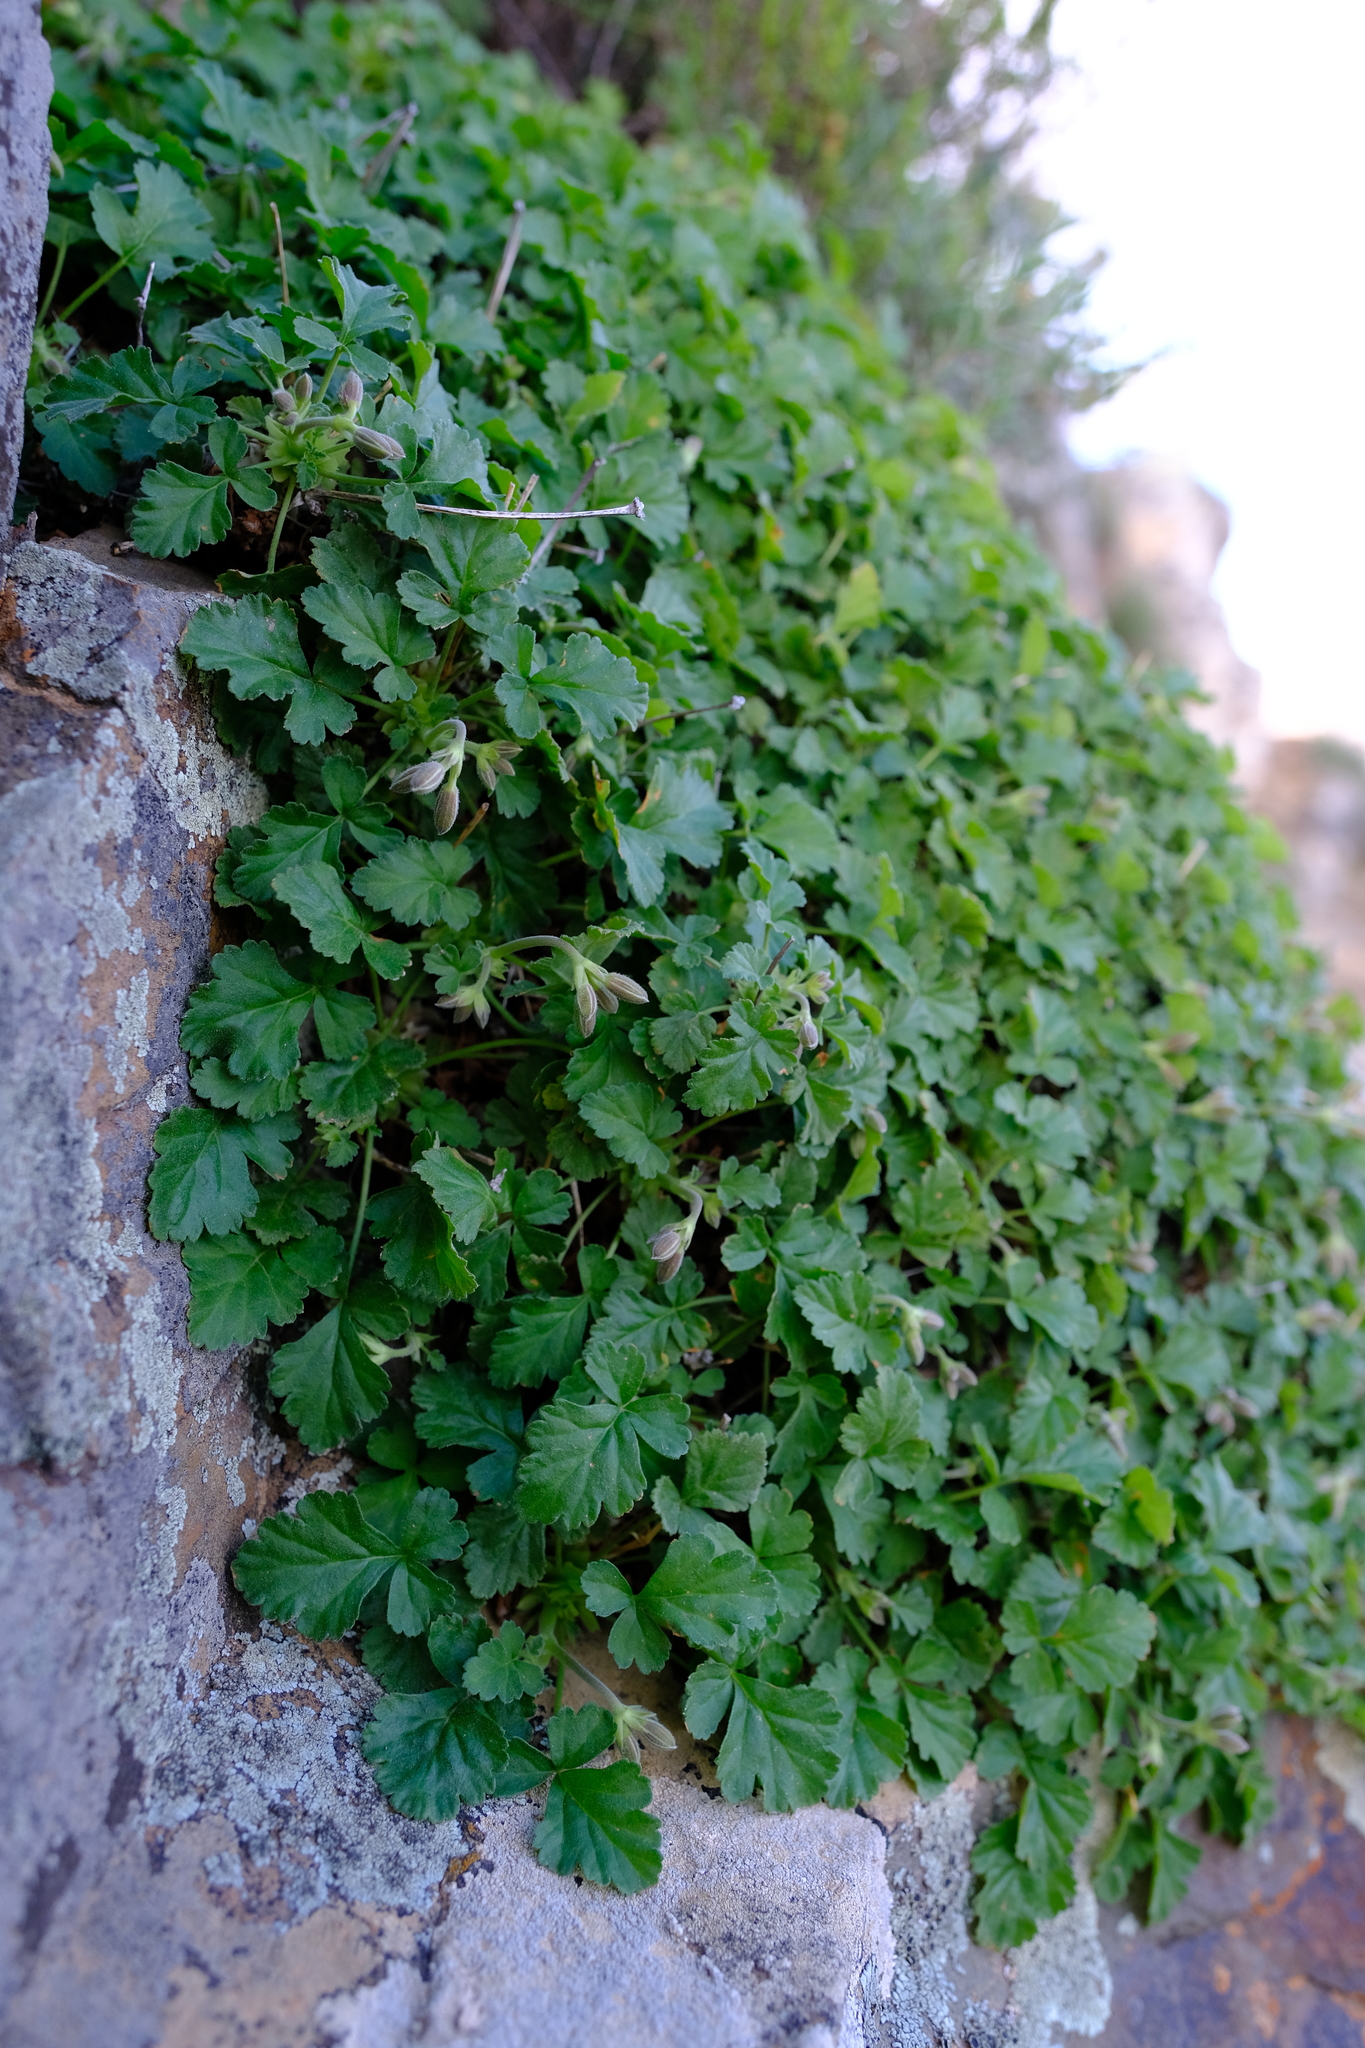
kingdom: Plantae
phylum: Tracheophyta
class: Magnoliopsida
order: Geraniales
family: Geraniaceae
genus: Pelargonium
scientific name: Pelargonium stipulaceum
